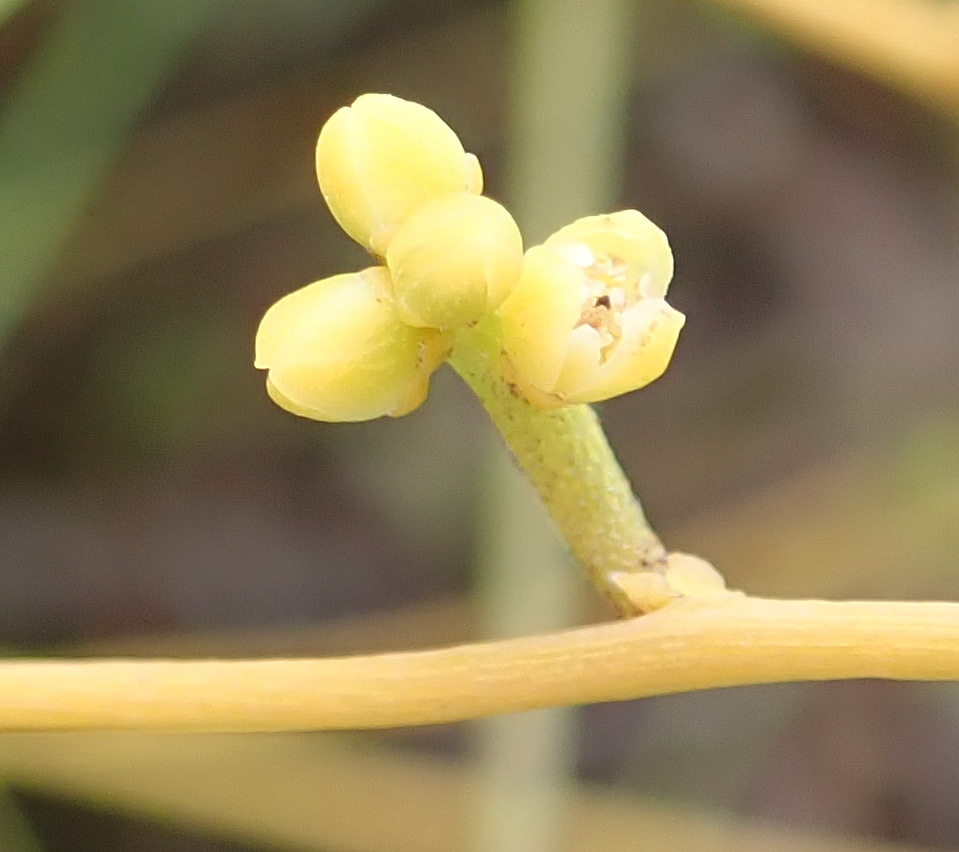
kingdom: Plantae
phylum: Tracheophyta
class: Magnoliopsida
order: Laurales
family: Lauraceae
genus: Cassytha
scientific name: Cassytha ciliolata
